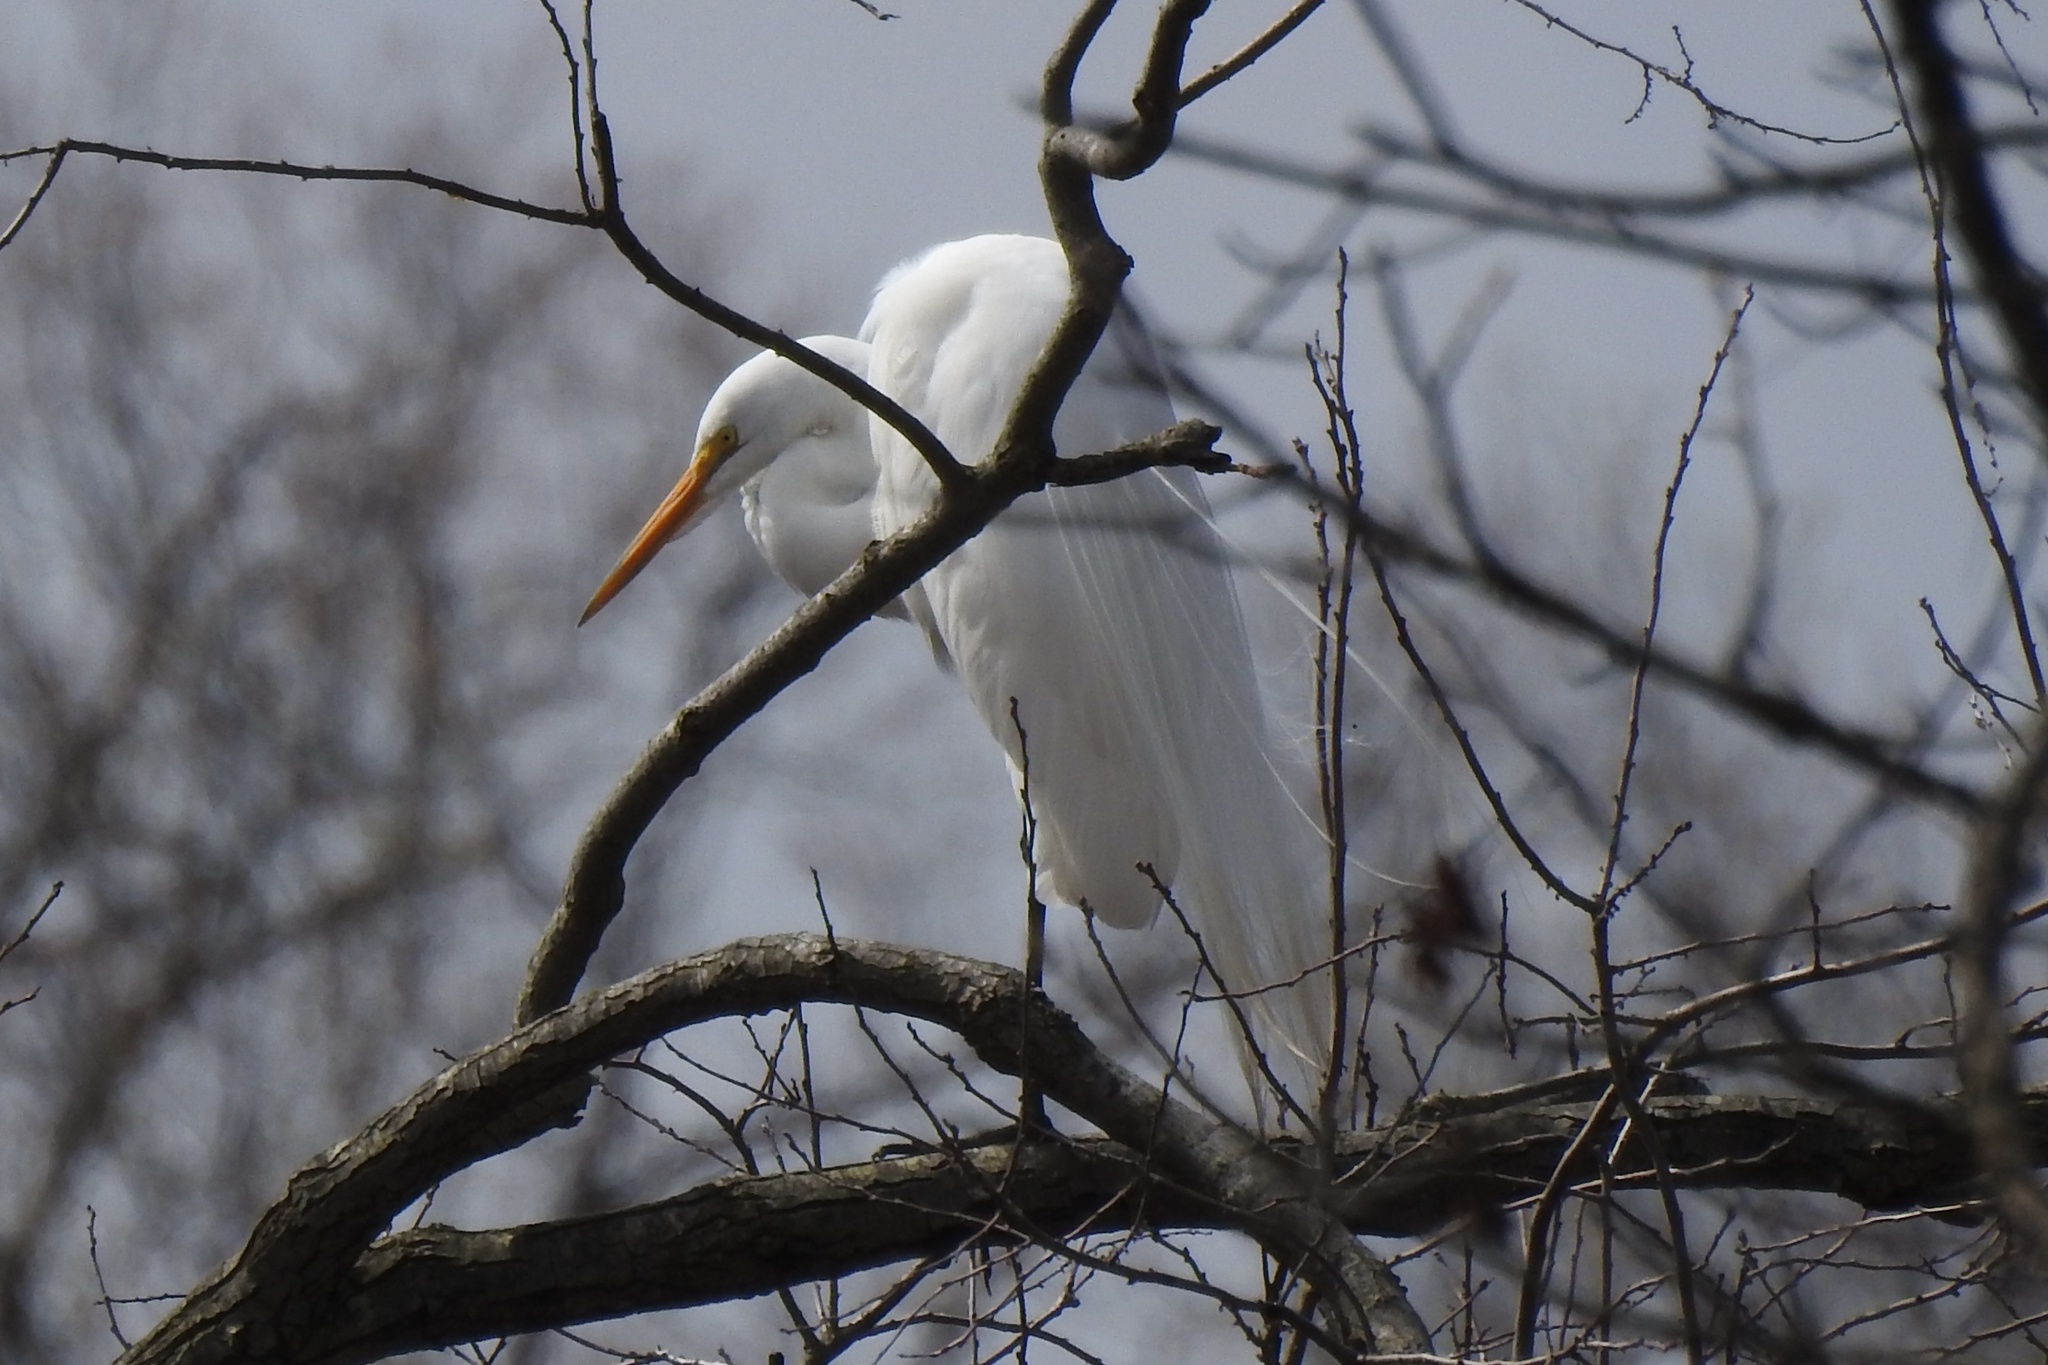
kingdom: Animalia
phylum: Chordata
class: Aves
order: Pelecaniformes
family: Ardeidae
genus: Ardea
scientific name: Ardea alba
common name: Great egret
